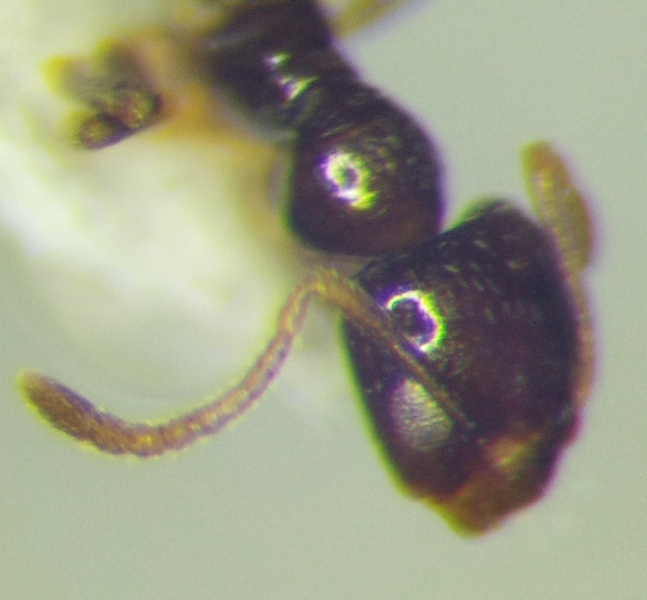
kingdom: Animalia
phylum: Arthropoda
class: Insecta
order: Hymenoptera
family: Formicidae
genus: Plagiolepis
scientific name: Plagiolepis pallescens
